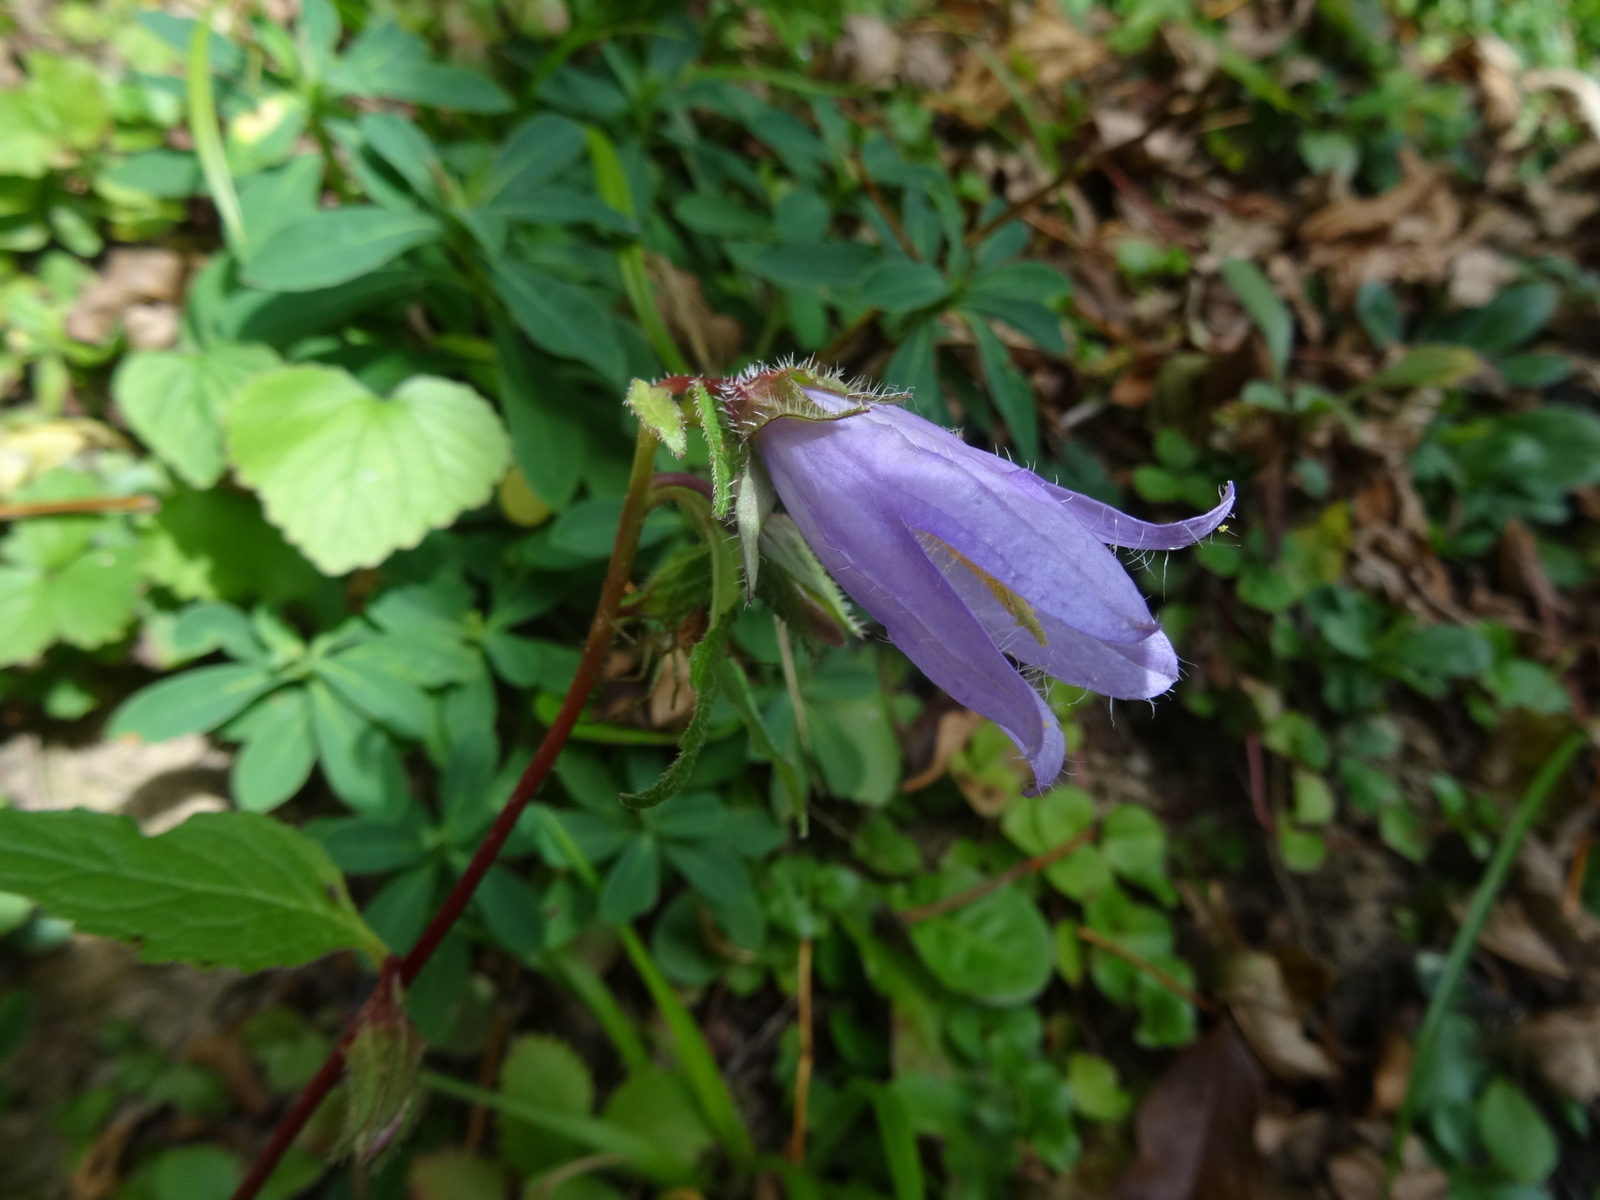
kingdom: Plantae
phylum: Tracheophyta
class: Magnoliopsida
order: Asterales
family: Campanulaceae
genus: Campanula
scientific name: Campanula trachelium
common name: Nettle-leaved bellflower
